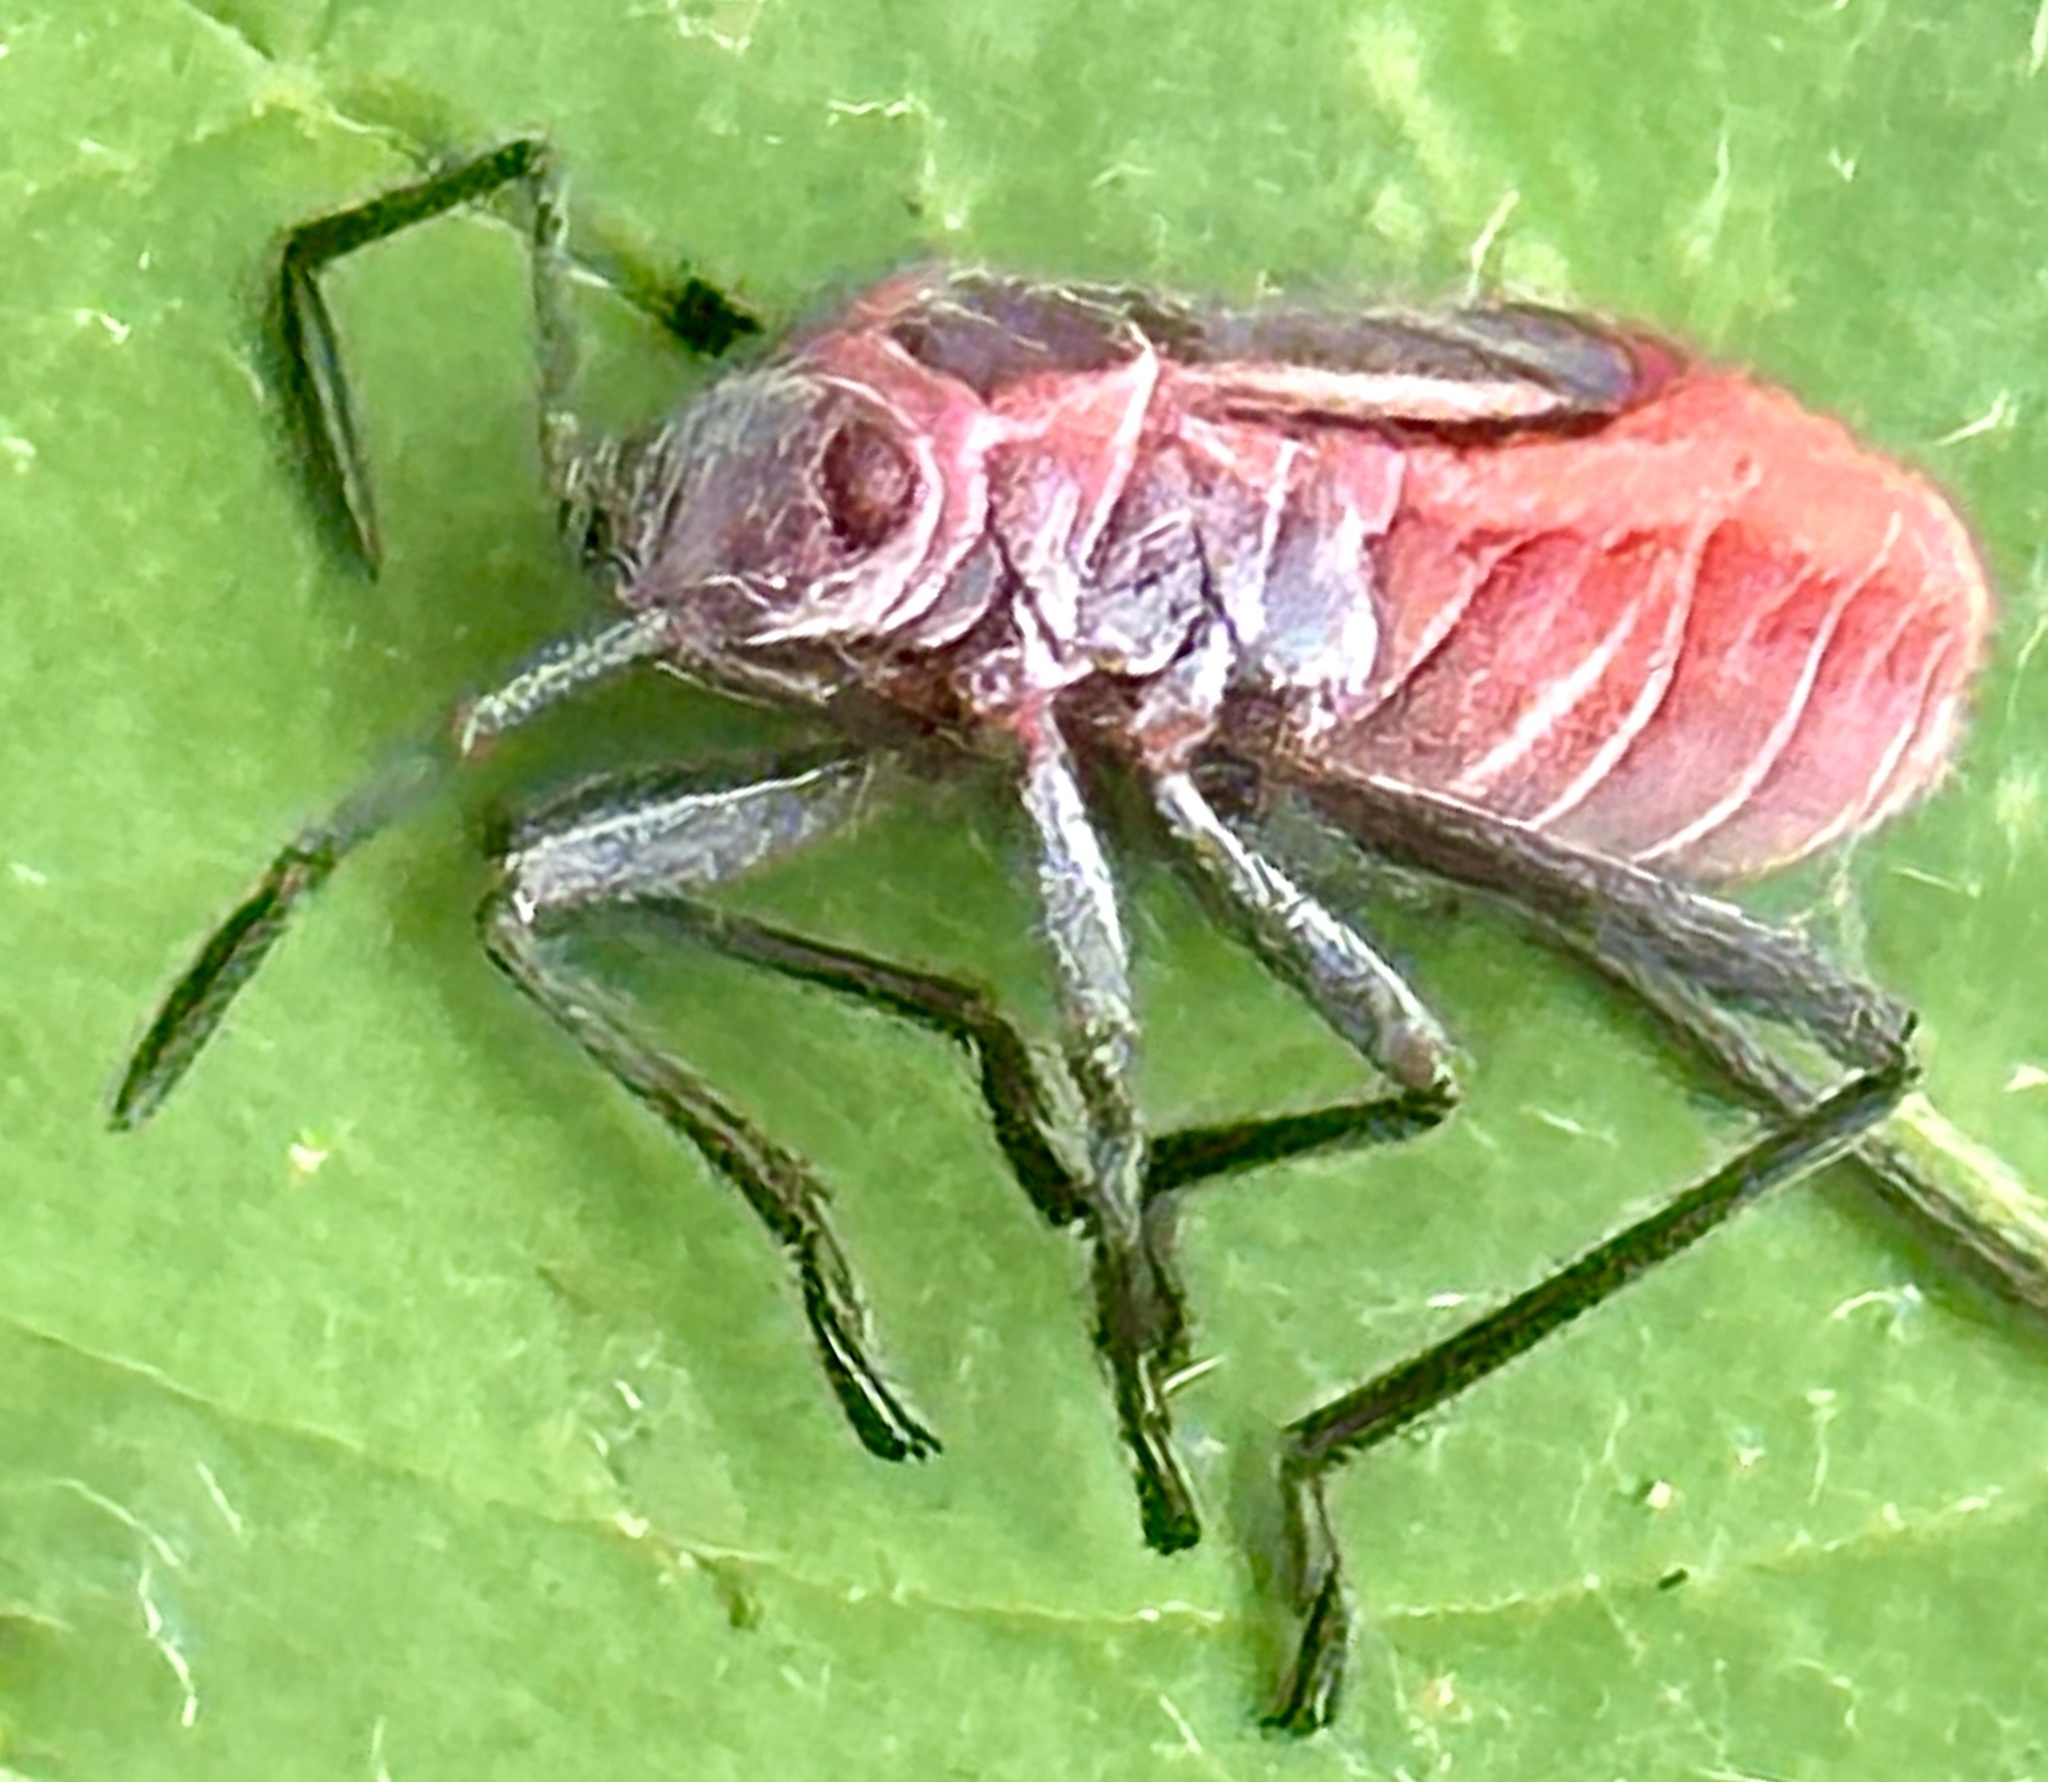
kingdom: Animalia
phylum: Arthropoda
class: Insecta
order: Hemiptera
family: Rhopalidae
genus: Boisea
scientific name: Boisea trivittata
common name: Boxelder bug
